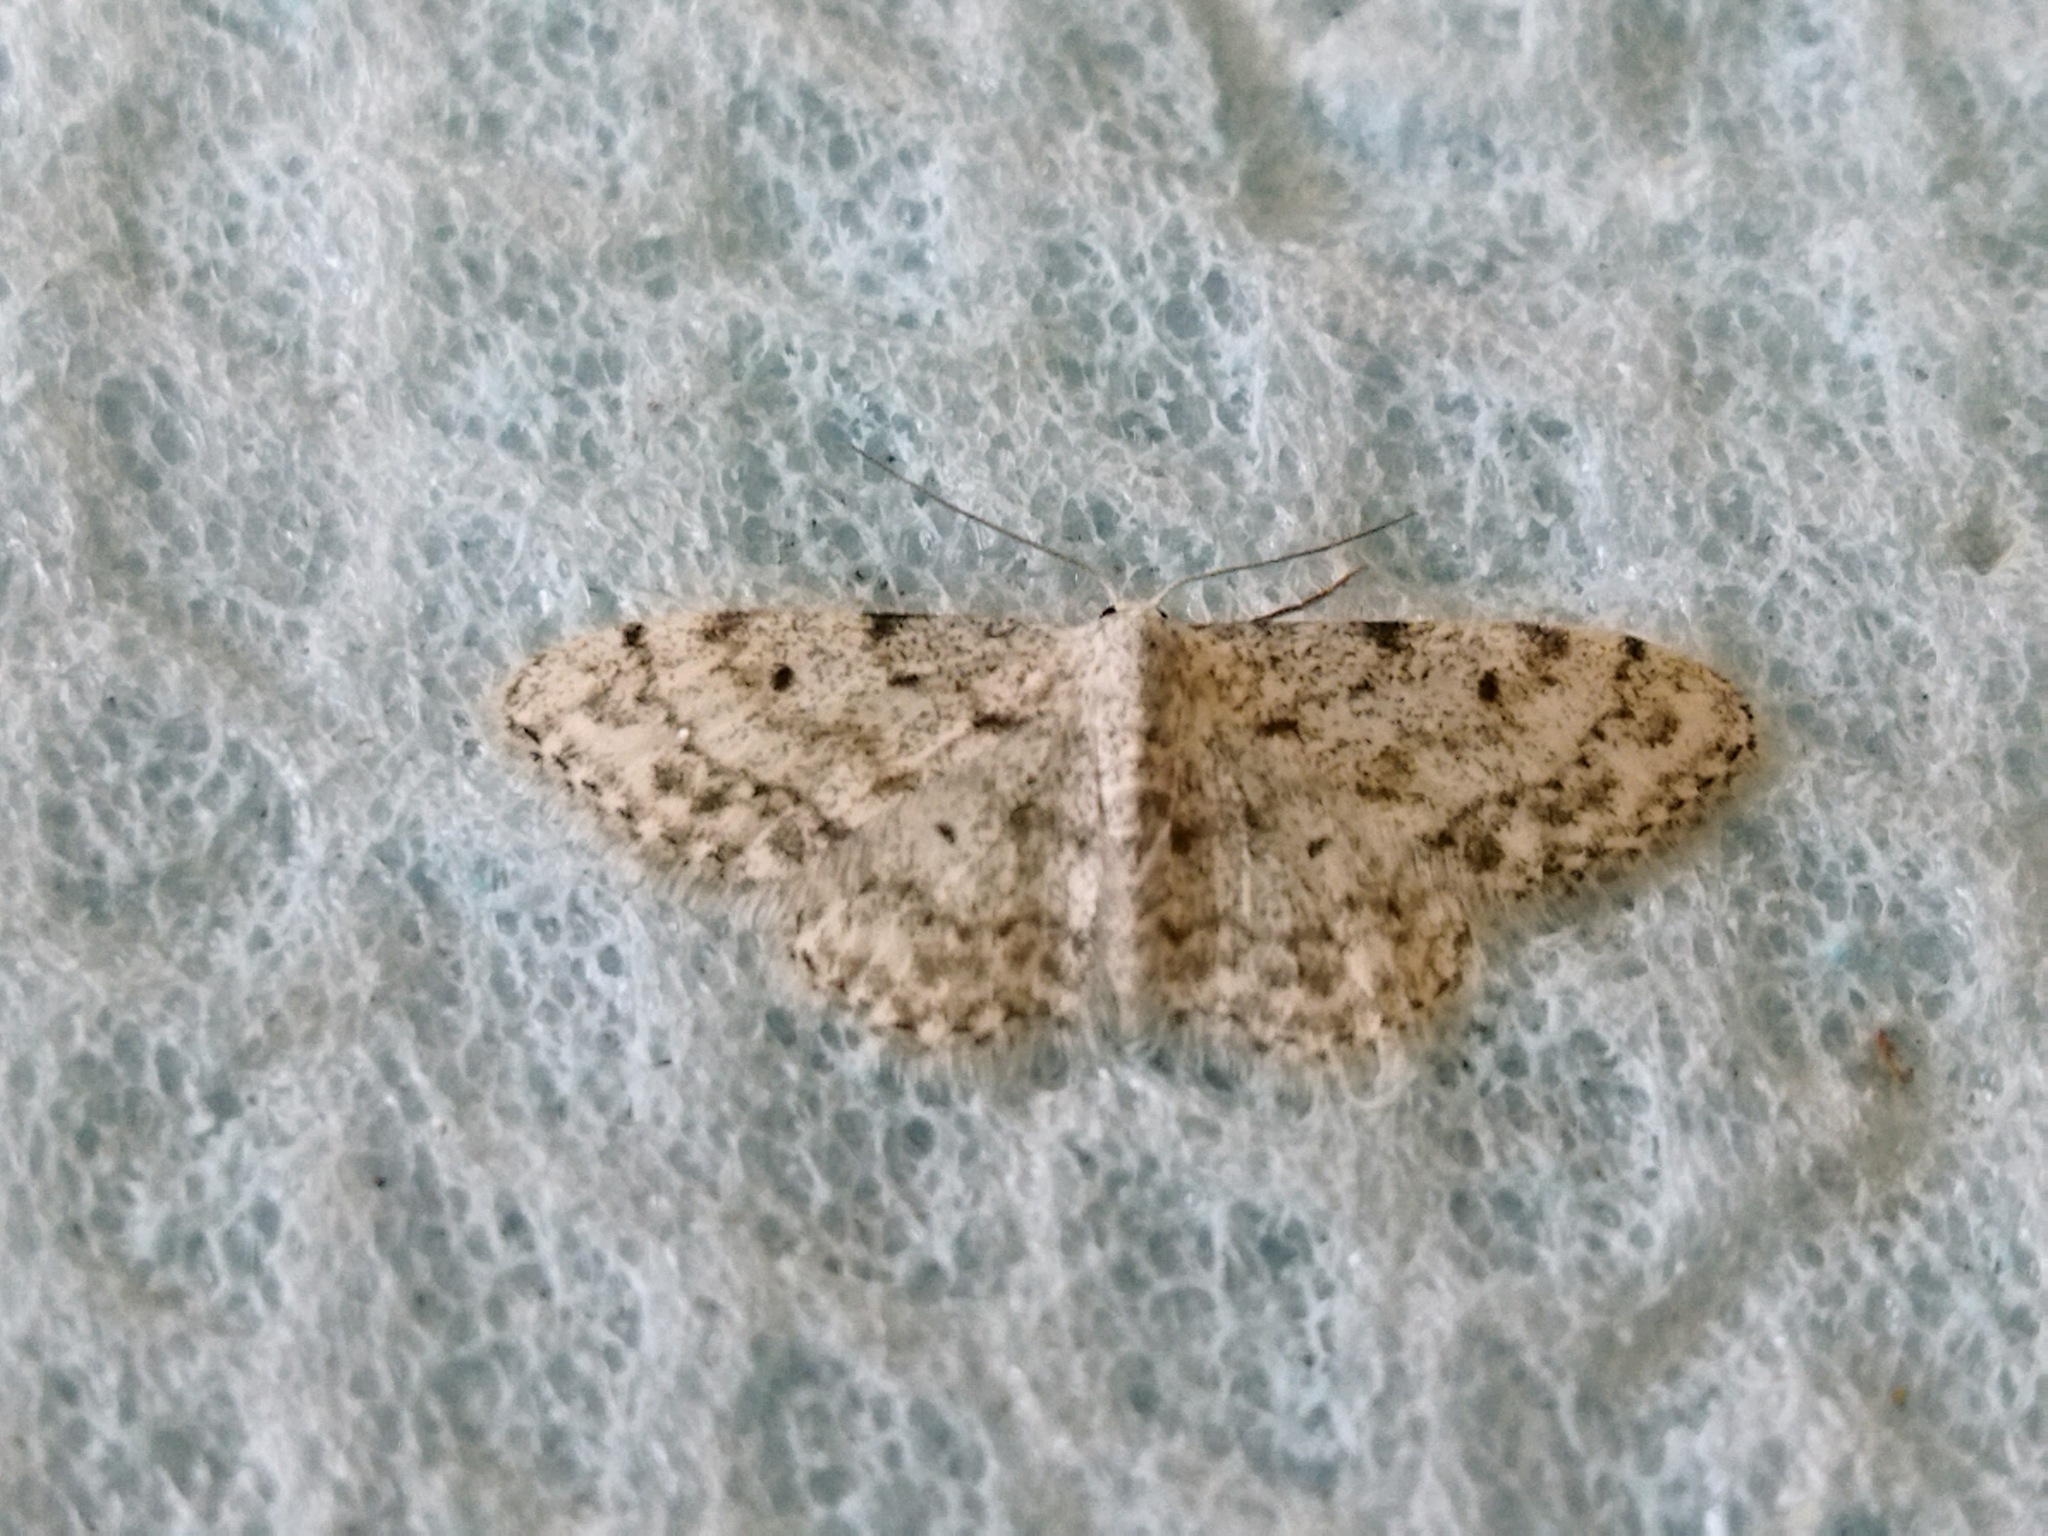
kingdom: Animalia
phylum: Arthropoda
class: Insecta
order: Lepidoptera
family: Geometridae
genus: Idaea
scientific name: Idaea camparia
